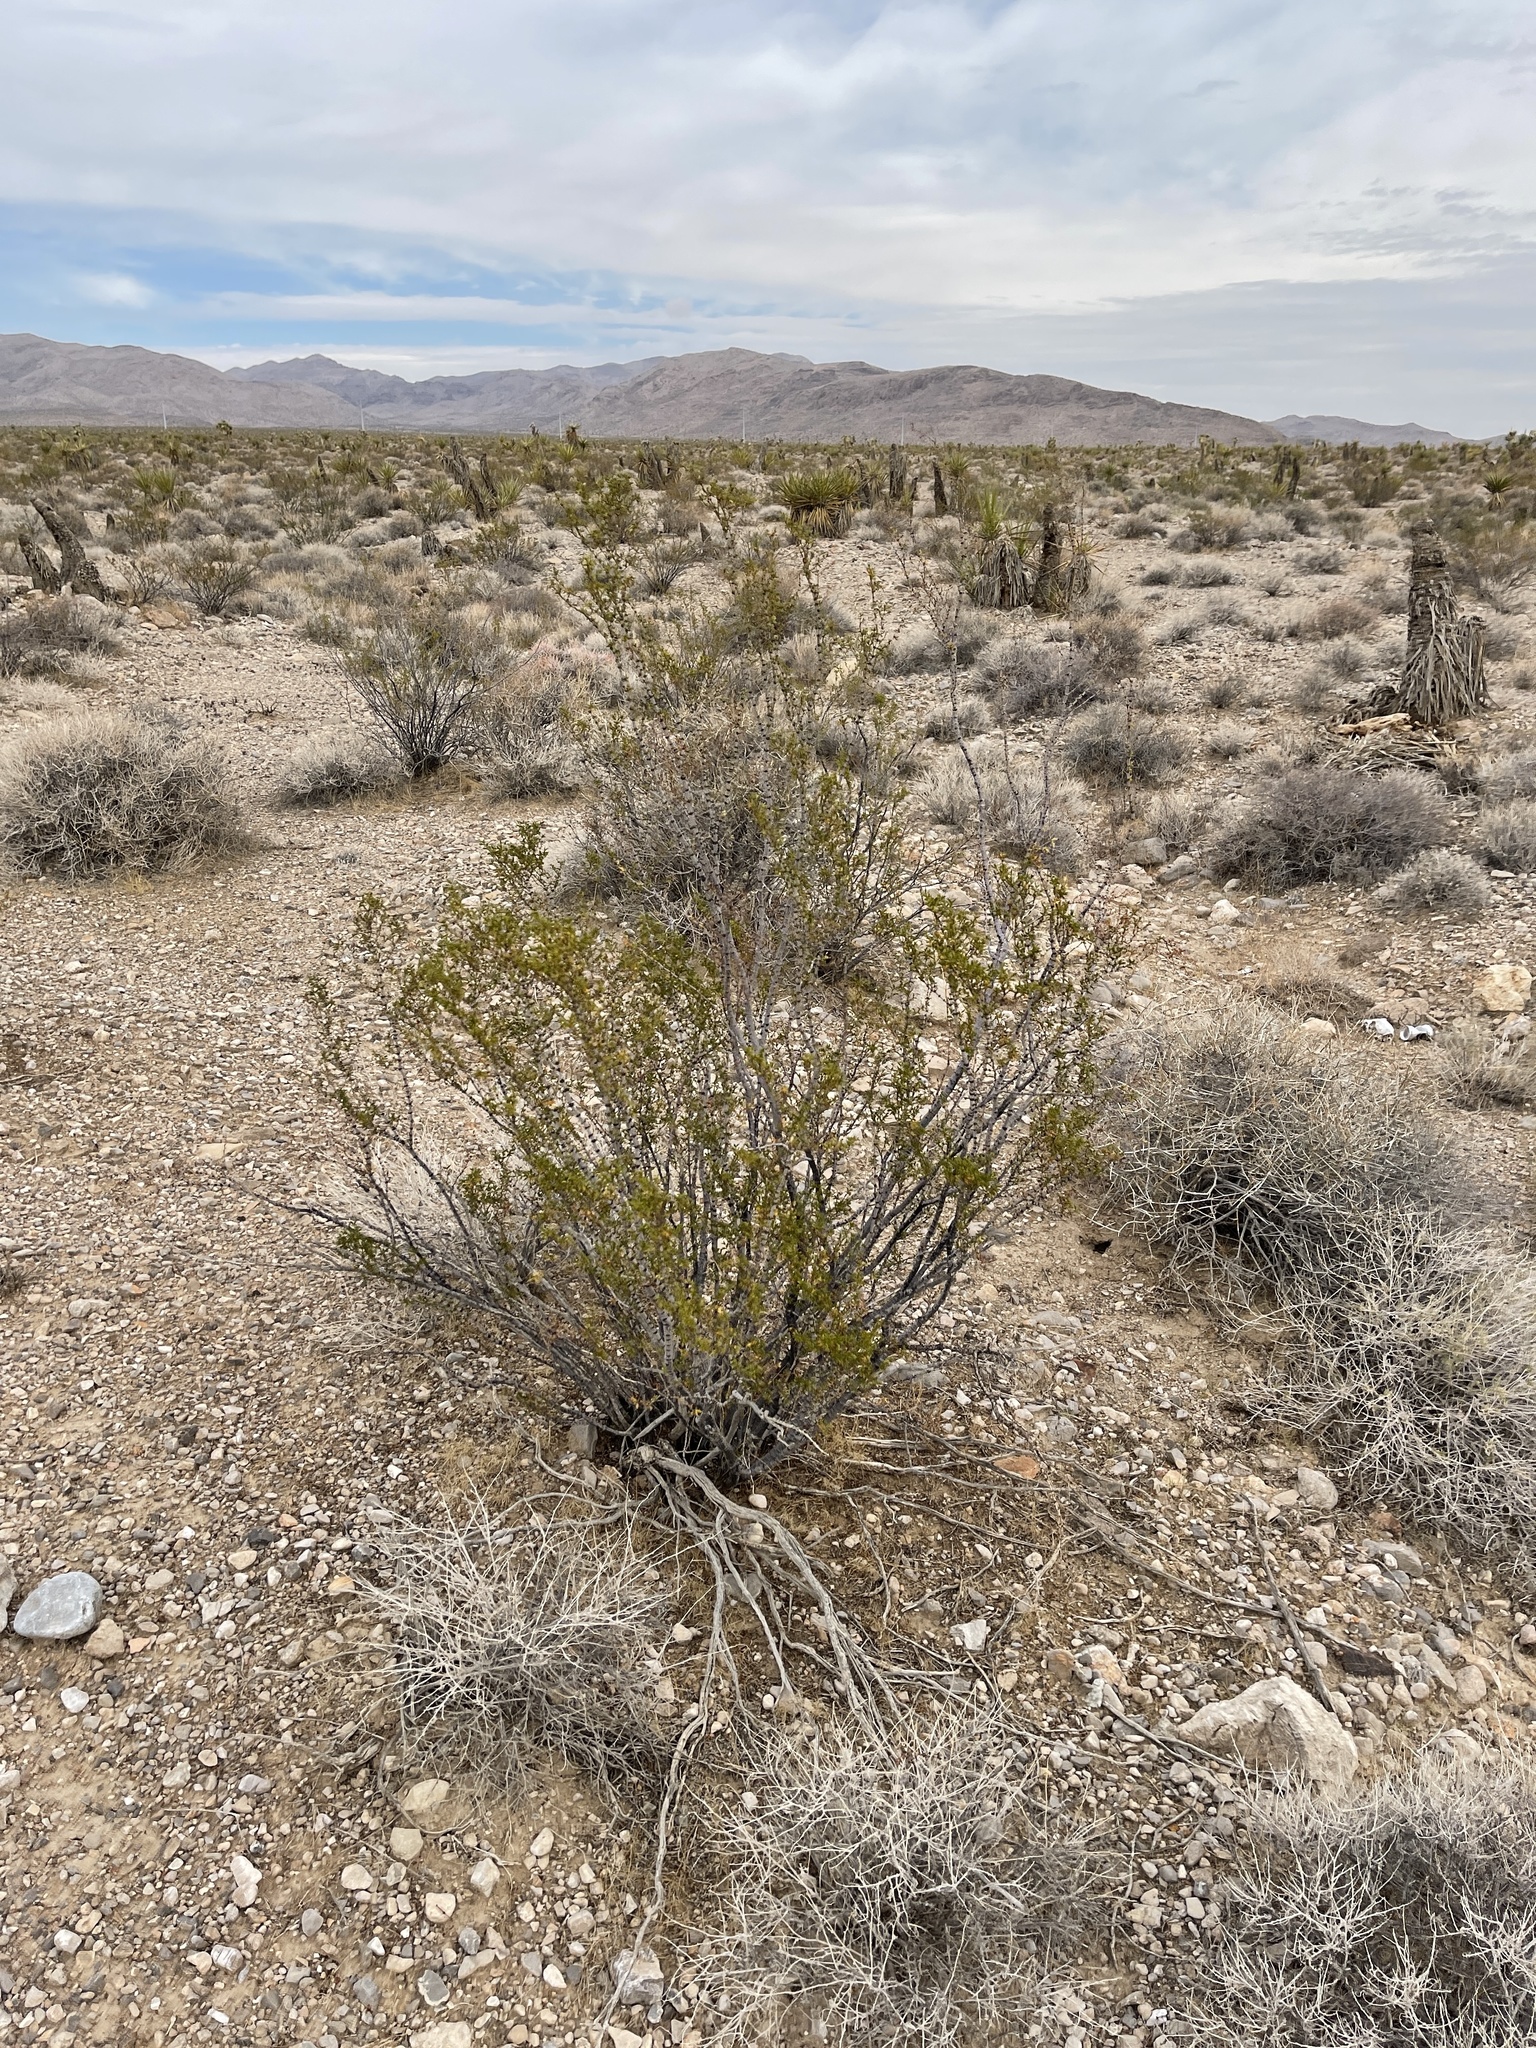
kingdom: Plantae
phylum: Tracheophyta
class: Magnoliopsida
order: Zygophyllales
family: Zygophyllaceae
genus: Larrea
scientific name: Larrea tridentata
